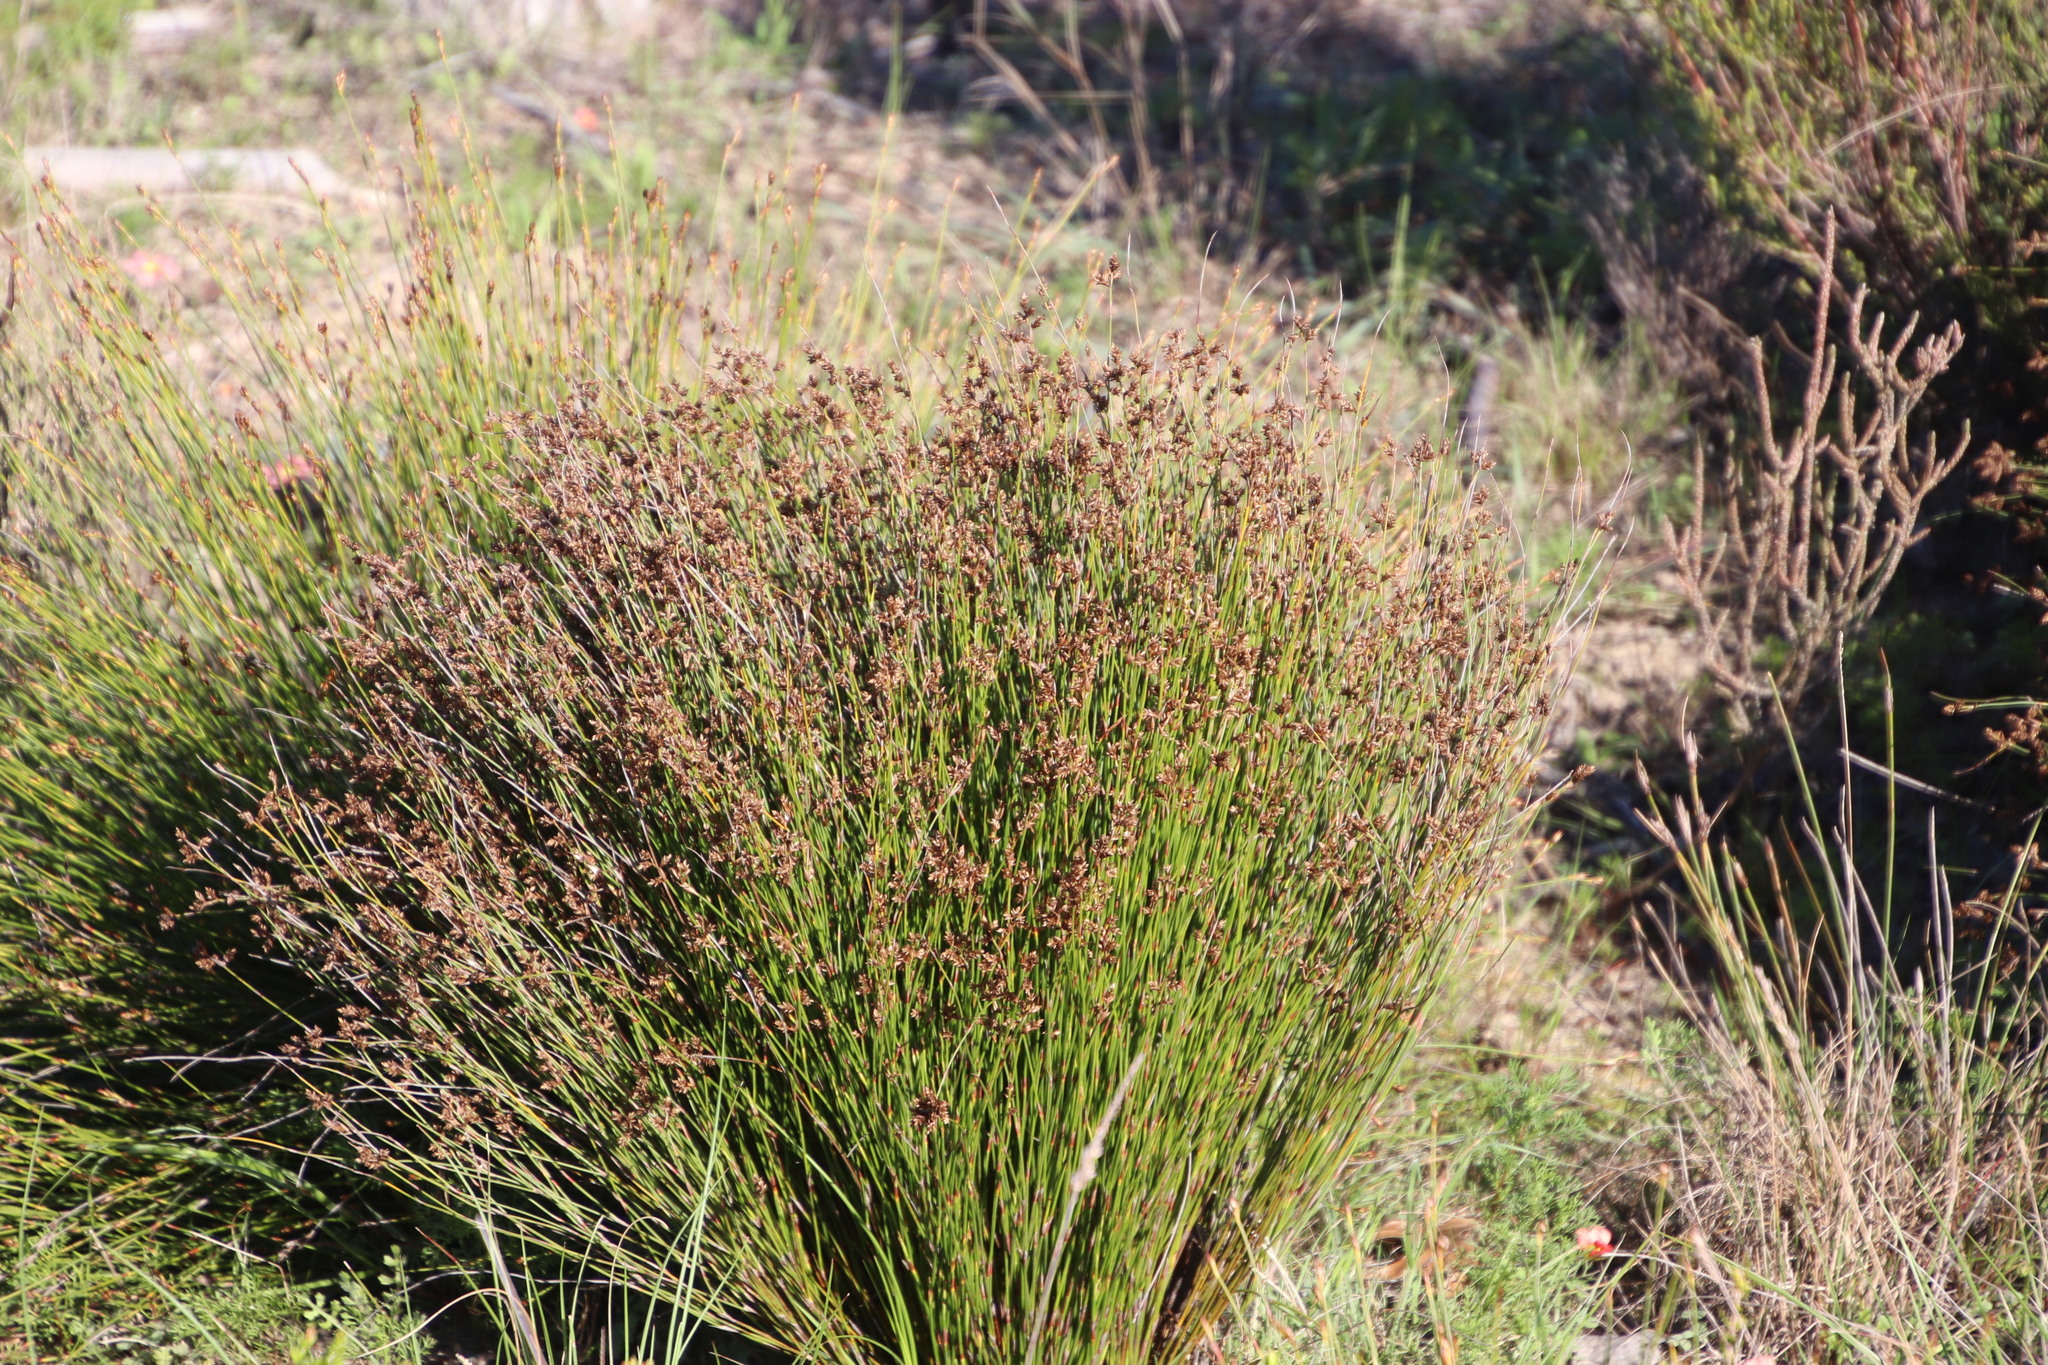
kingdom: Plantae
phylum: Tracheophyta
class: Liliopsida
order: Poales
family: Restionaceae
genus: Mastersiella
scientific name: Mastersiella digitata
